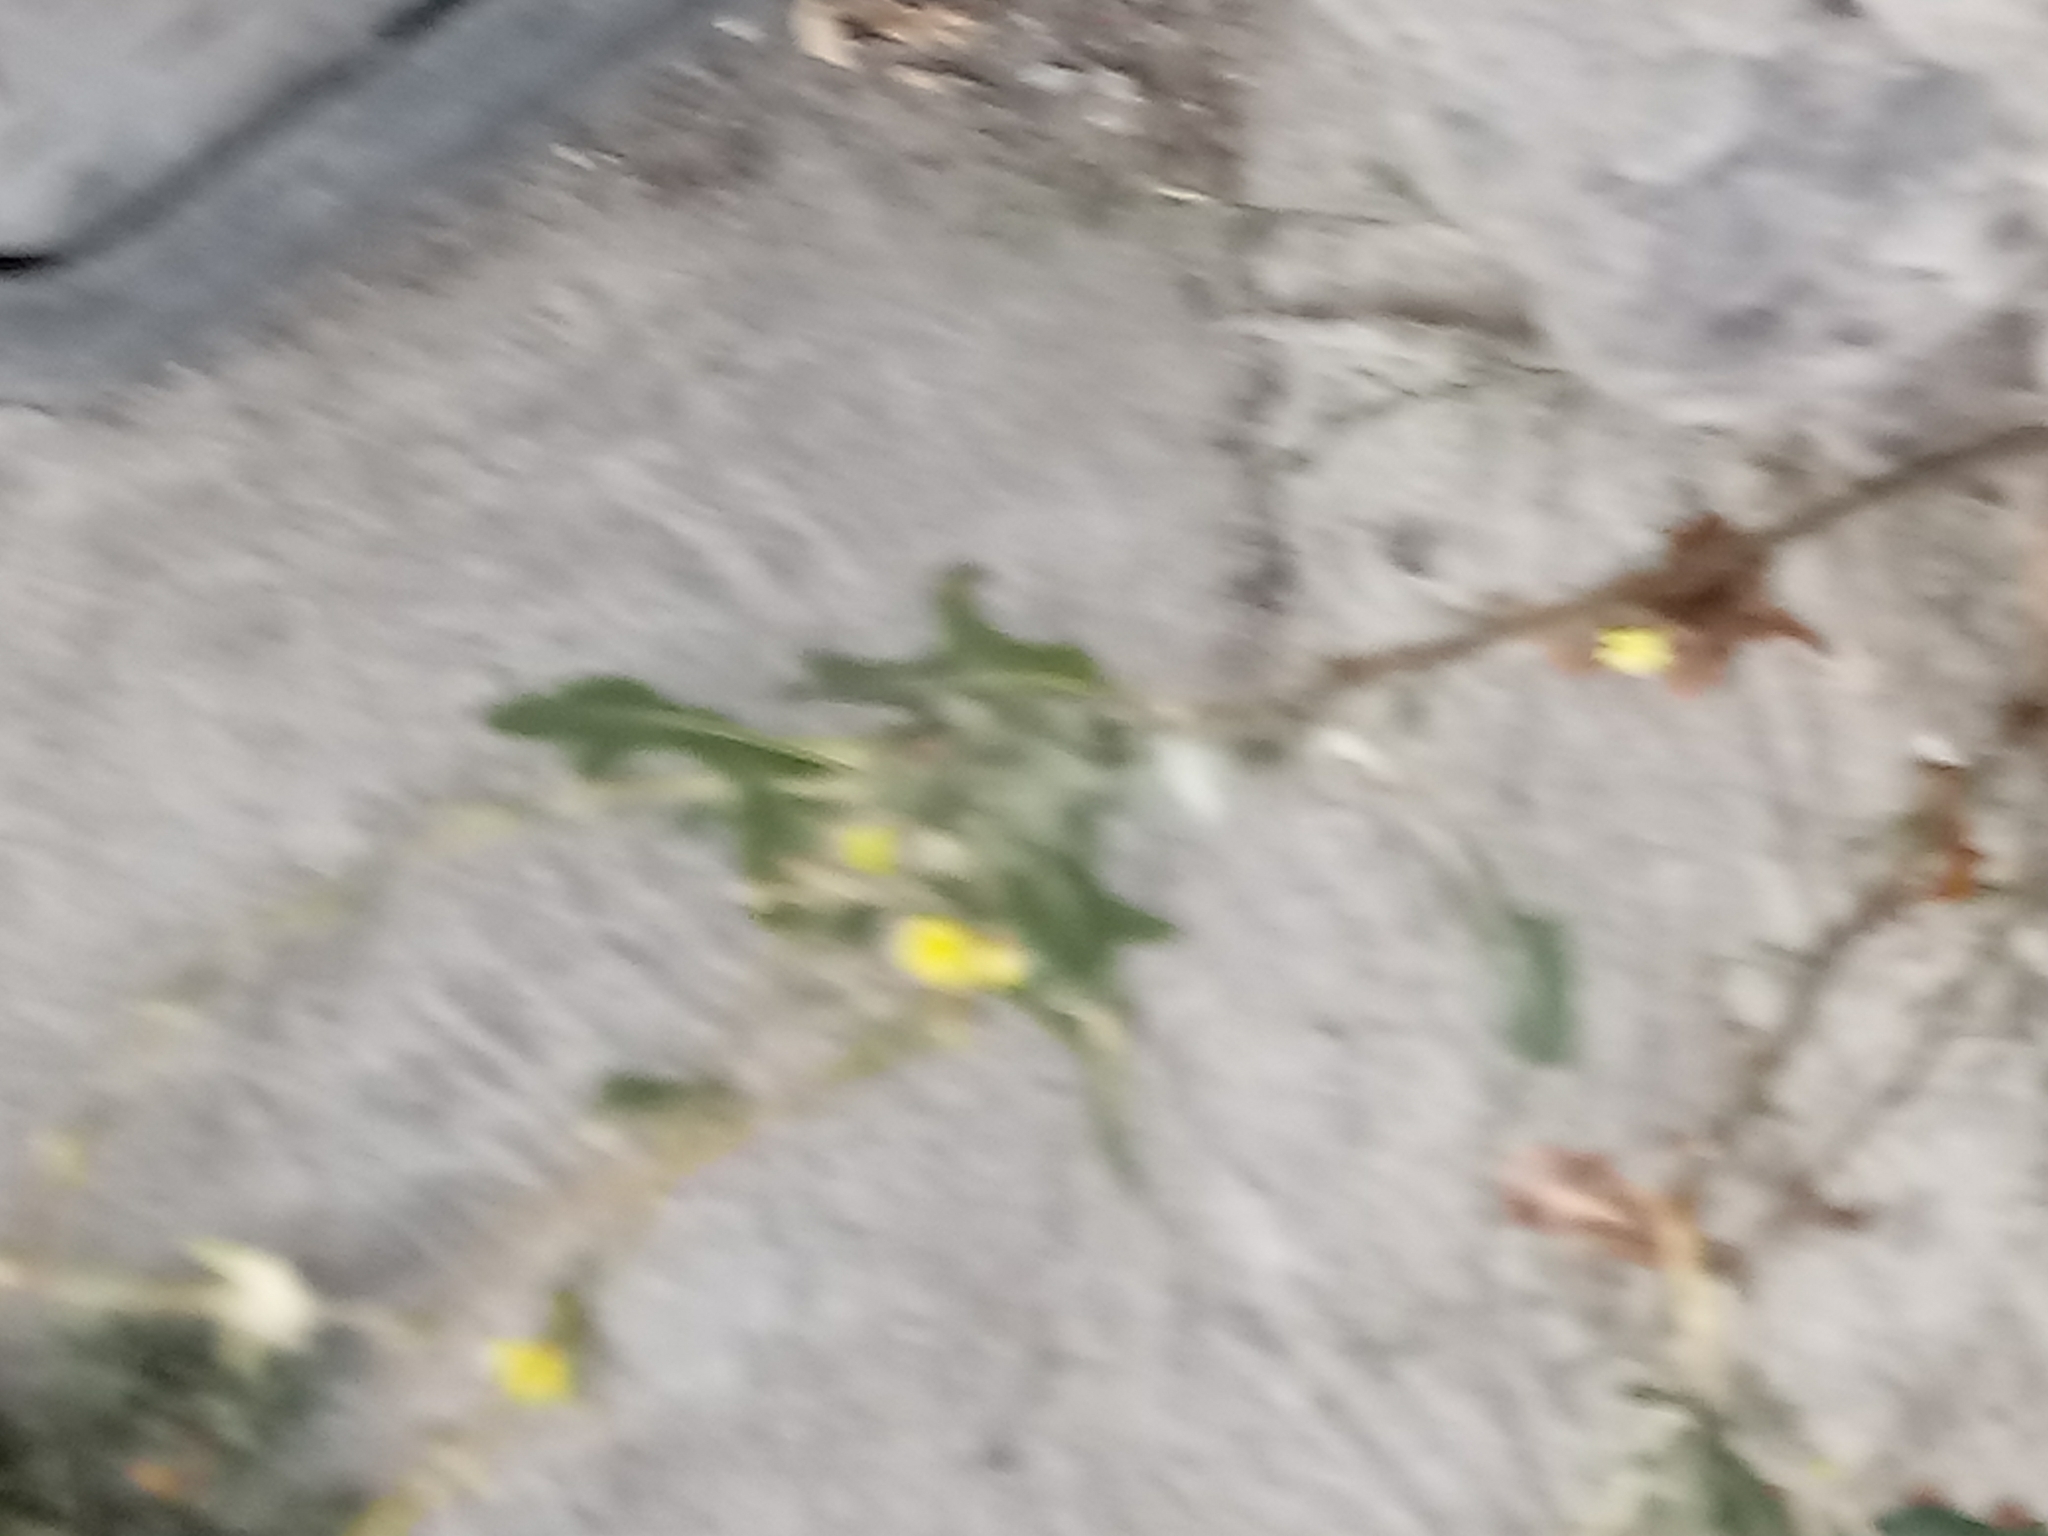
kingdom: Plantae
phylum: Tracheophyta
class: Magnoliopsida
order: Asterales
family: Asteraceae
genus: Lactuca
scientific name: Lactuca serriola
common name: Prickly lettuce
